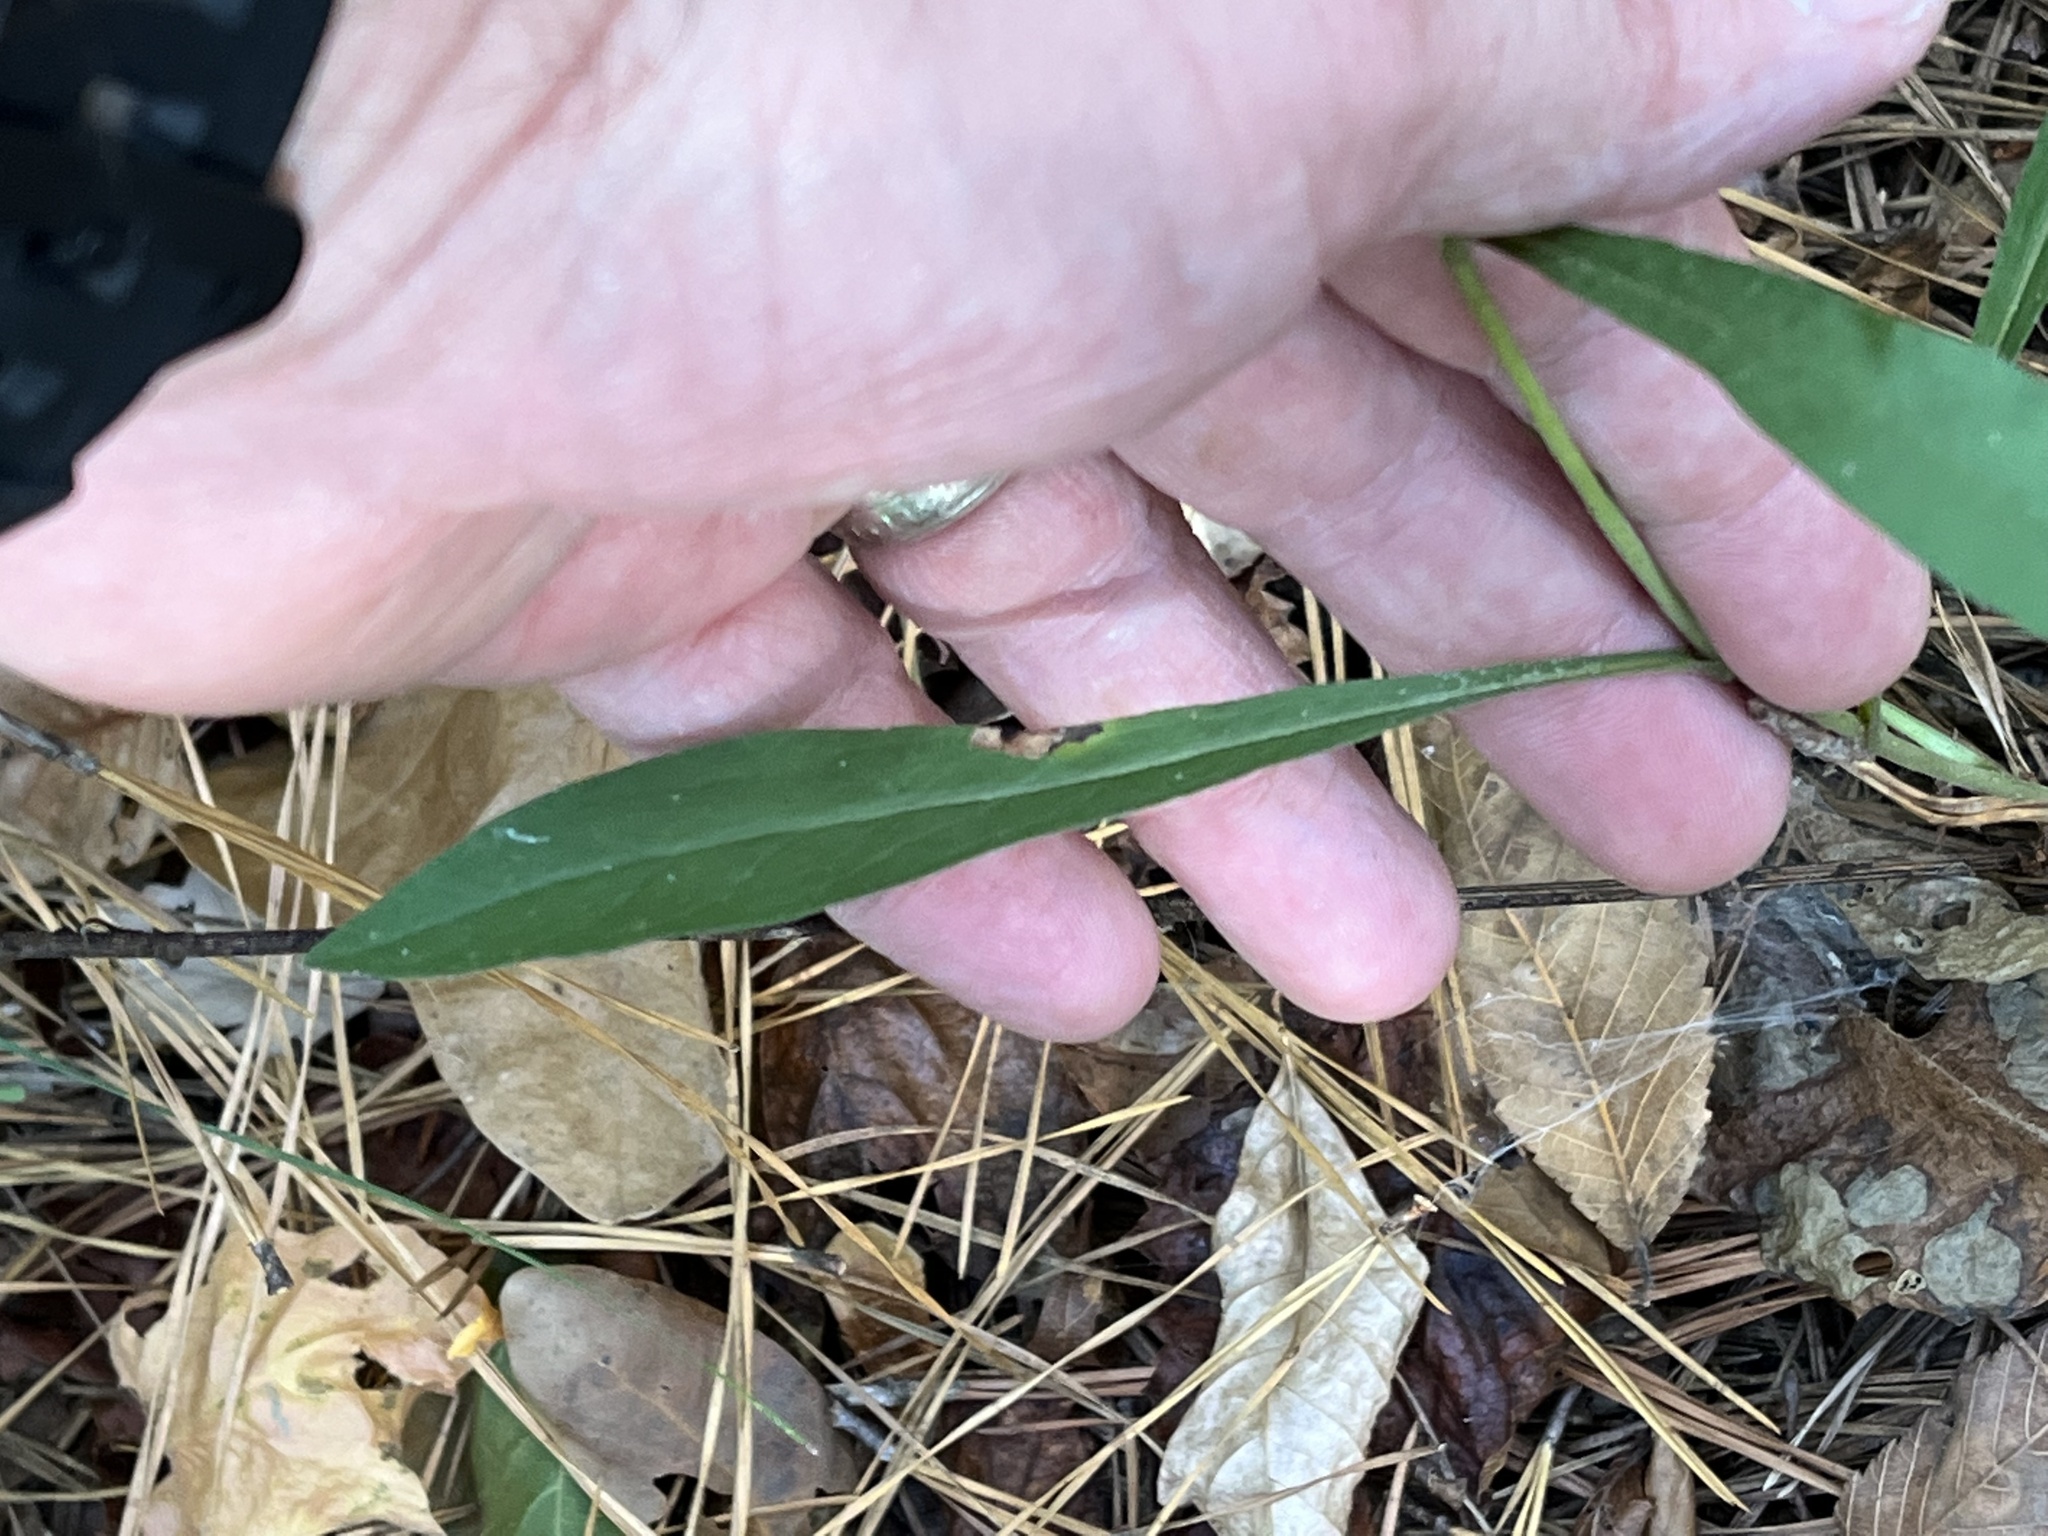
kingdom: Plantae
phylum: Tracheophyta
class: Magnoliopsida
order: Asterales
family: Asteraceae
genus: Solidago
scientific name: Solidago erecta
